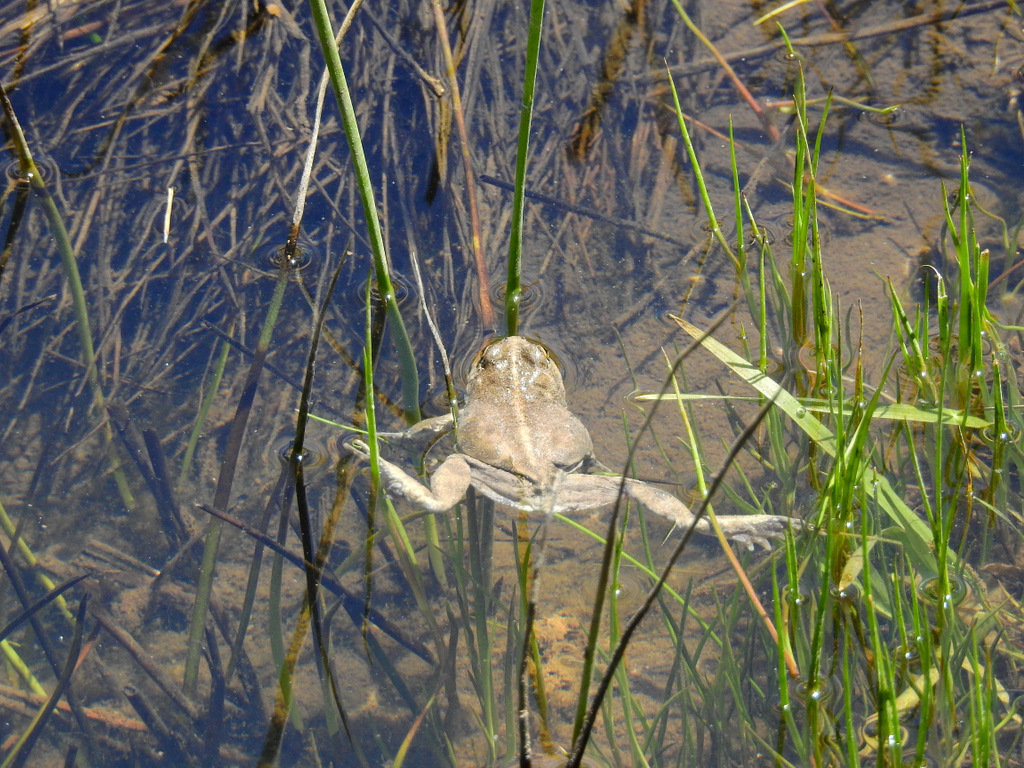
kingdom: Animalia
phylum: Chordata
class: Amphibia
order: Anura
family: Leptodactylidae
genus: Pleurodema
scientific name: Pleurodema bufoninum
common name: Large four-eyed frog
